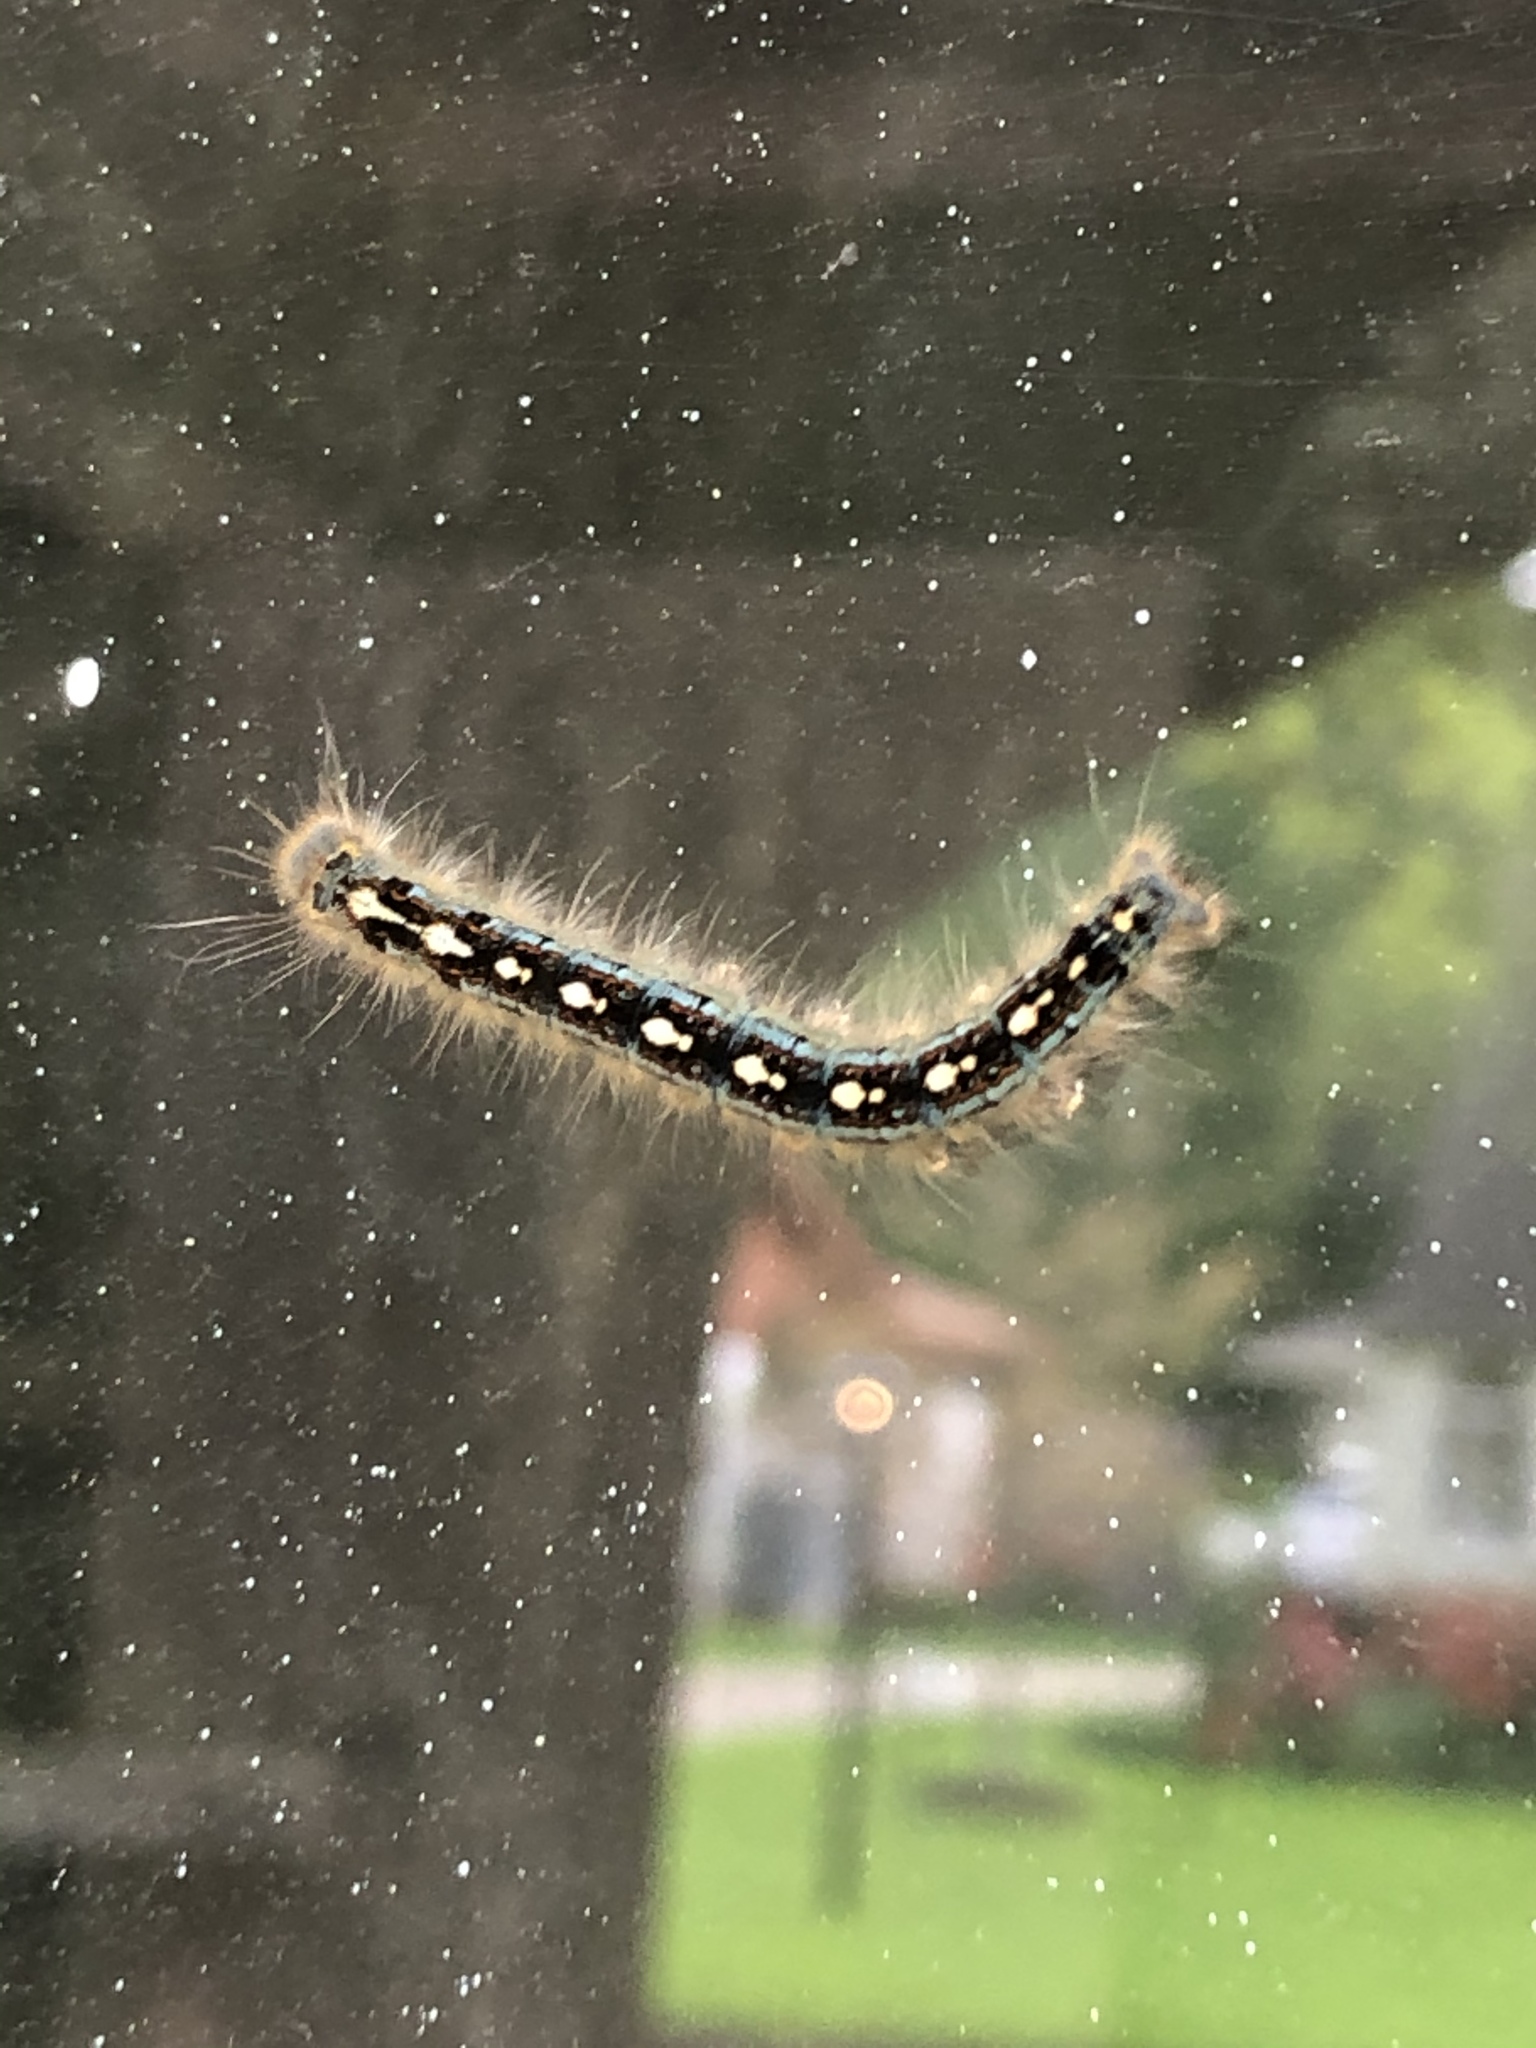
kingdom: Animalia
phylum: Arthropoda
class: Insecta
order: Lepidoptera
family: Lasiocampidae
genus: Malacosoma
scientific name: Malacosoma disstria
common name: Forest tent caterpillar
